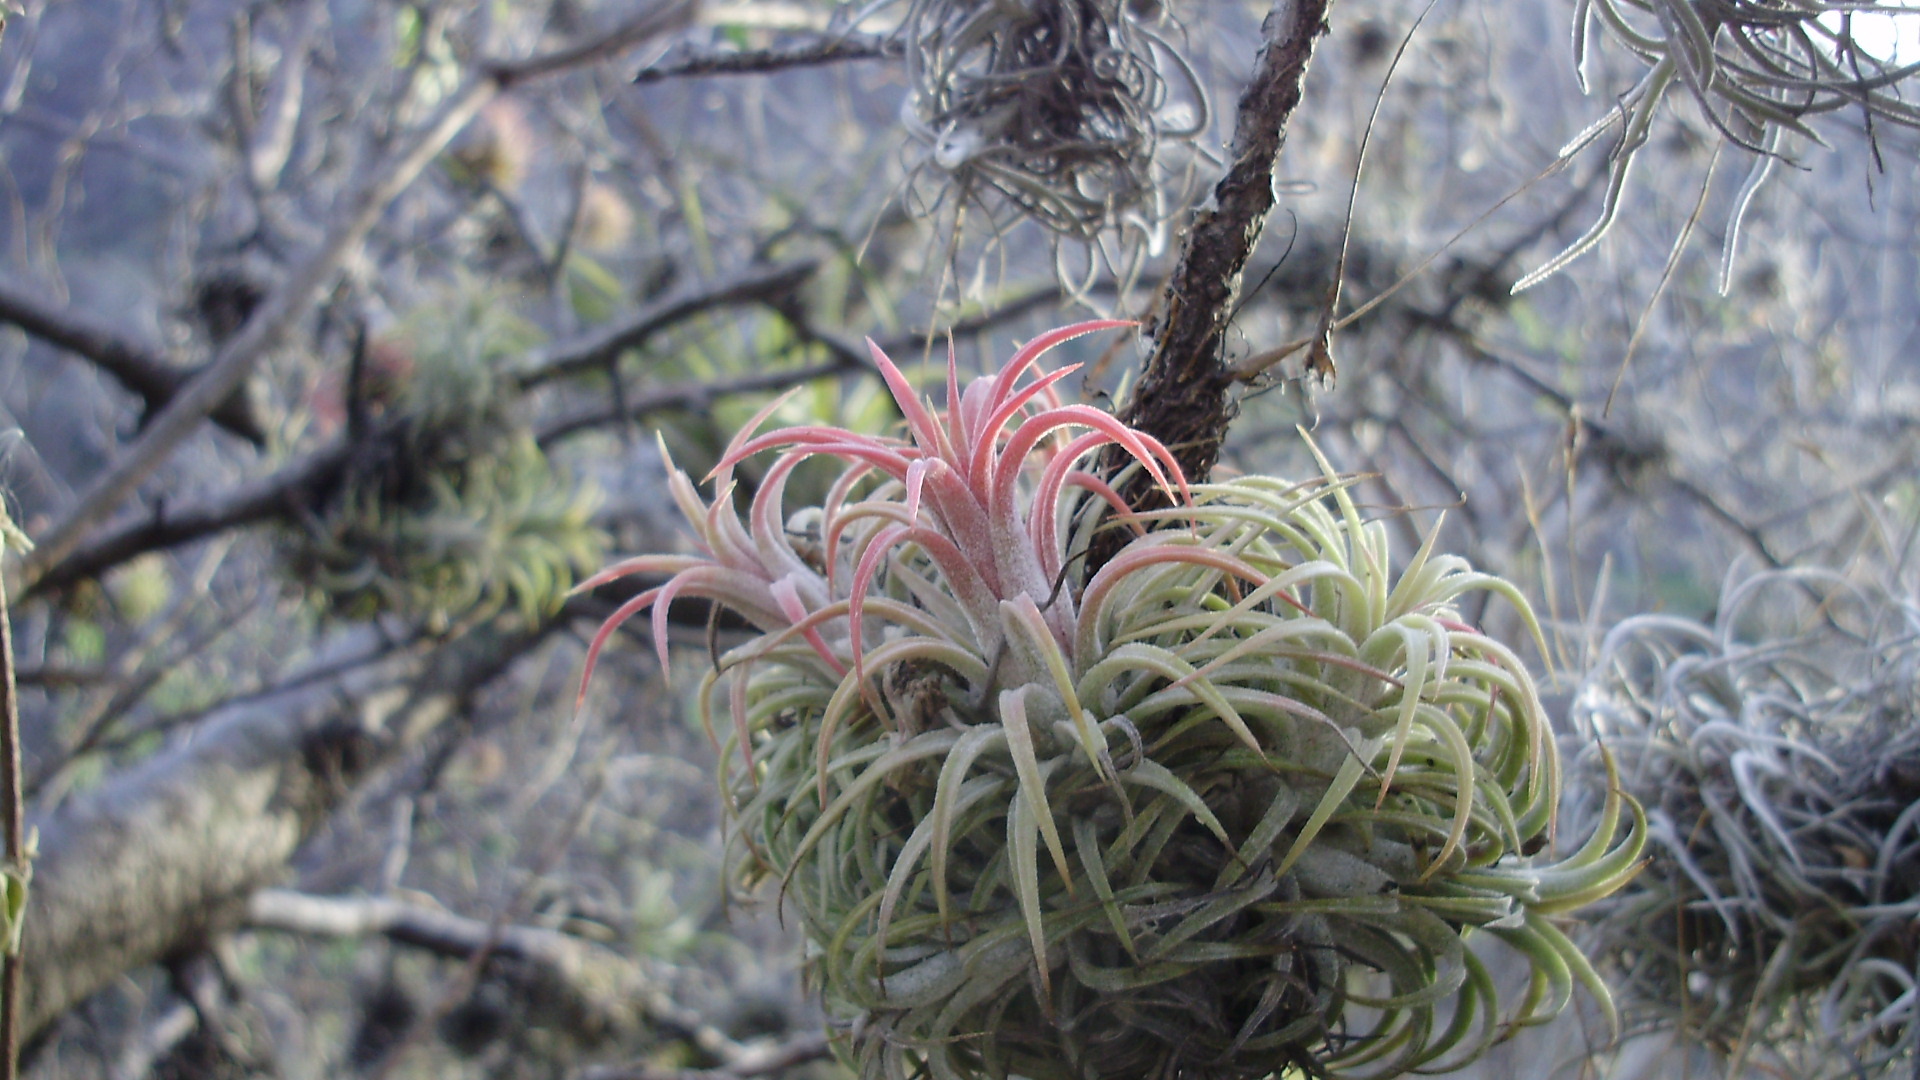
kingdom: Plantae
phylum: Tracheophyta
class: Liliopsida
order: Poales
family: Bromeliaceae
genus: Tillandsia
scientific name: Tillandsia ionantha
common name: Sky plant
